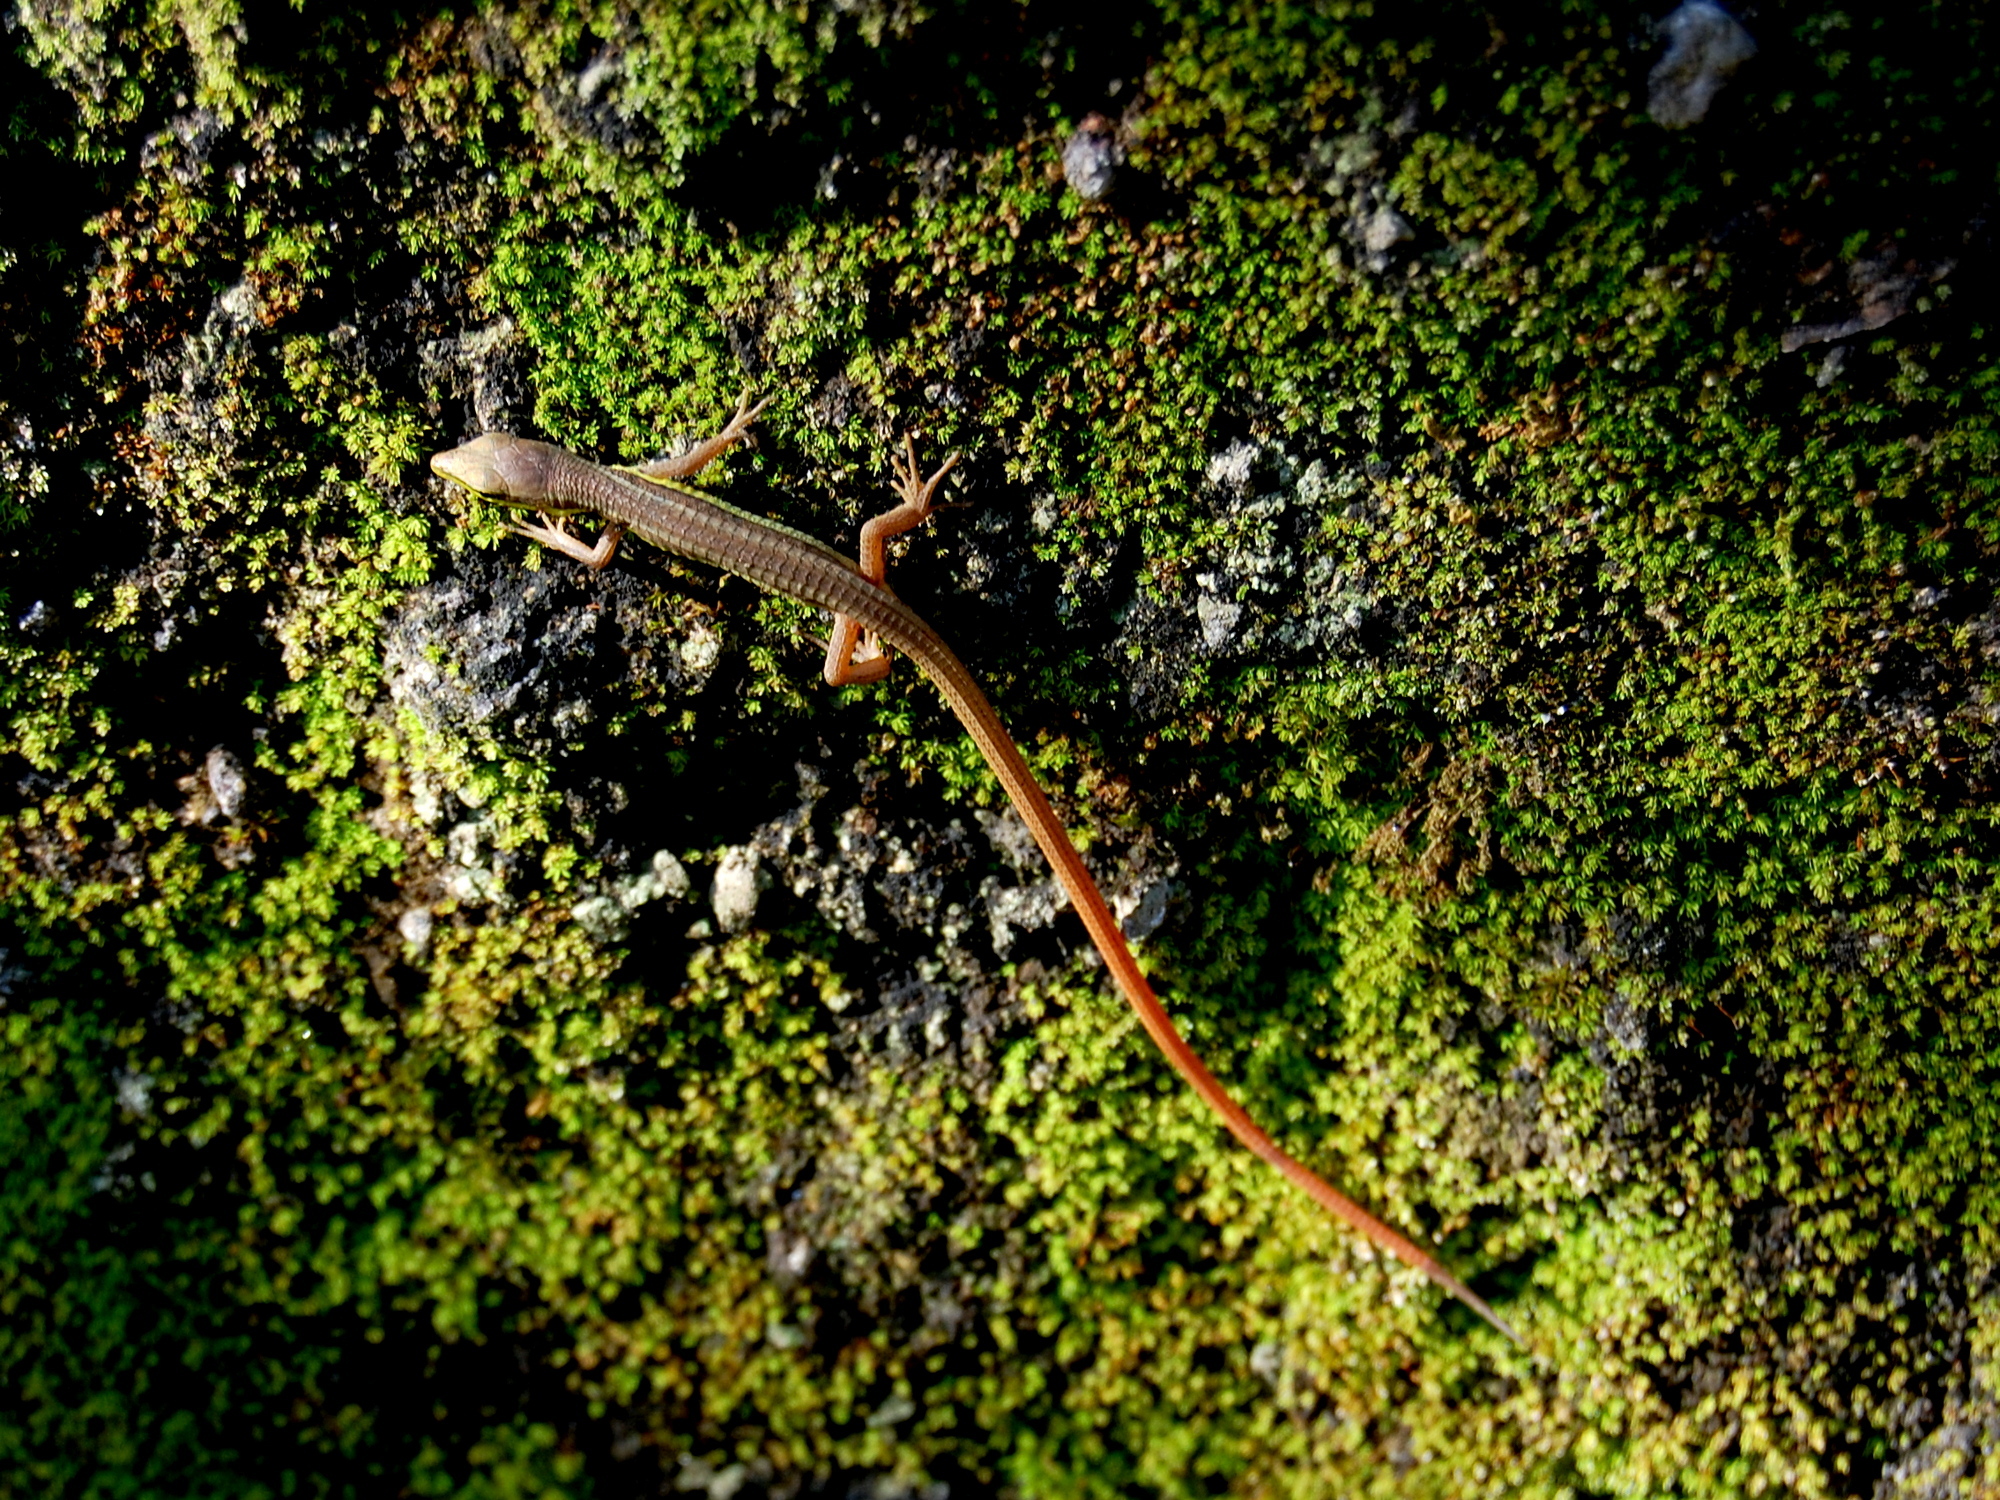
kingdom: Animalia
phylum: Chordata
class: Squamata
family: Lacertidae
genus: Takydromus
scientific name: Takydromus sexlineatus
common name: Asian grass lizard
